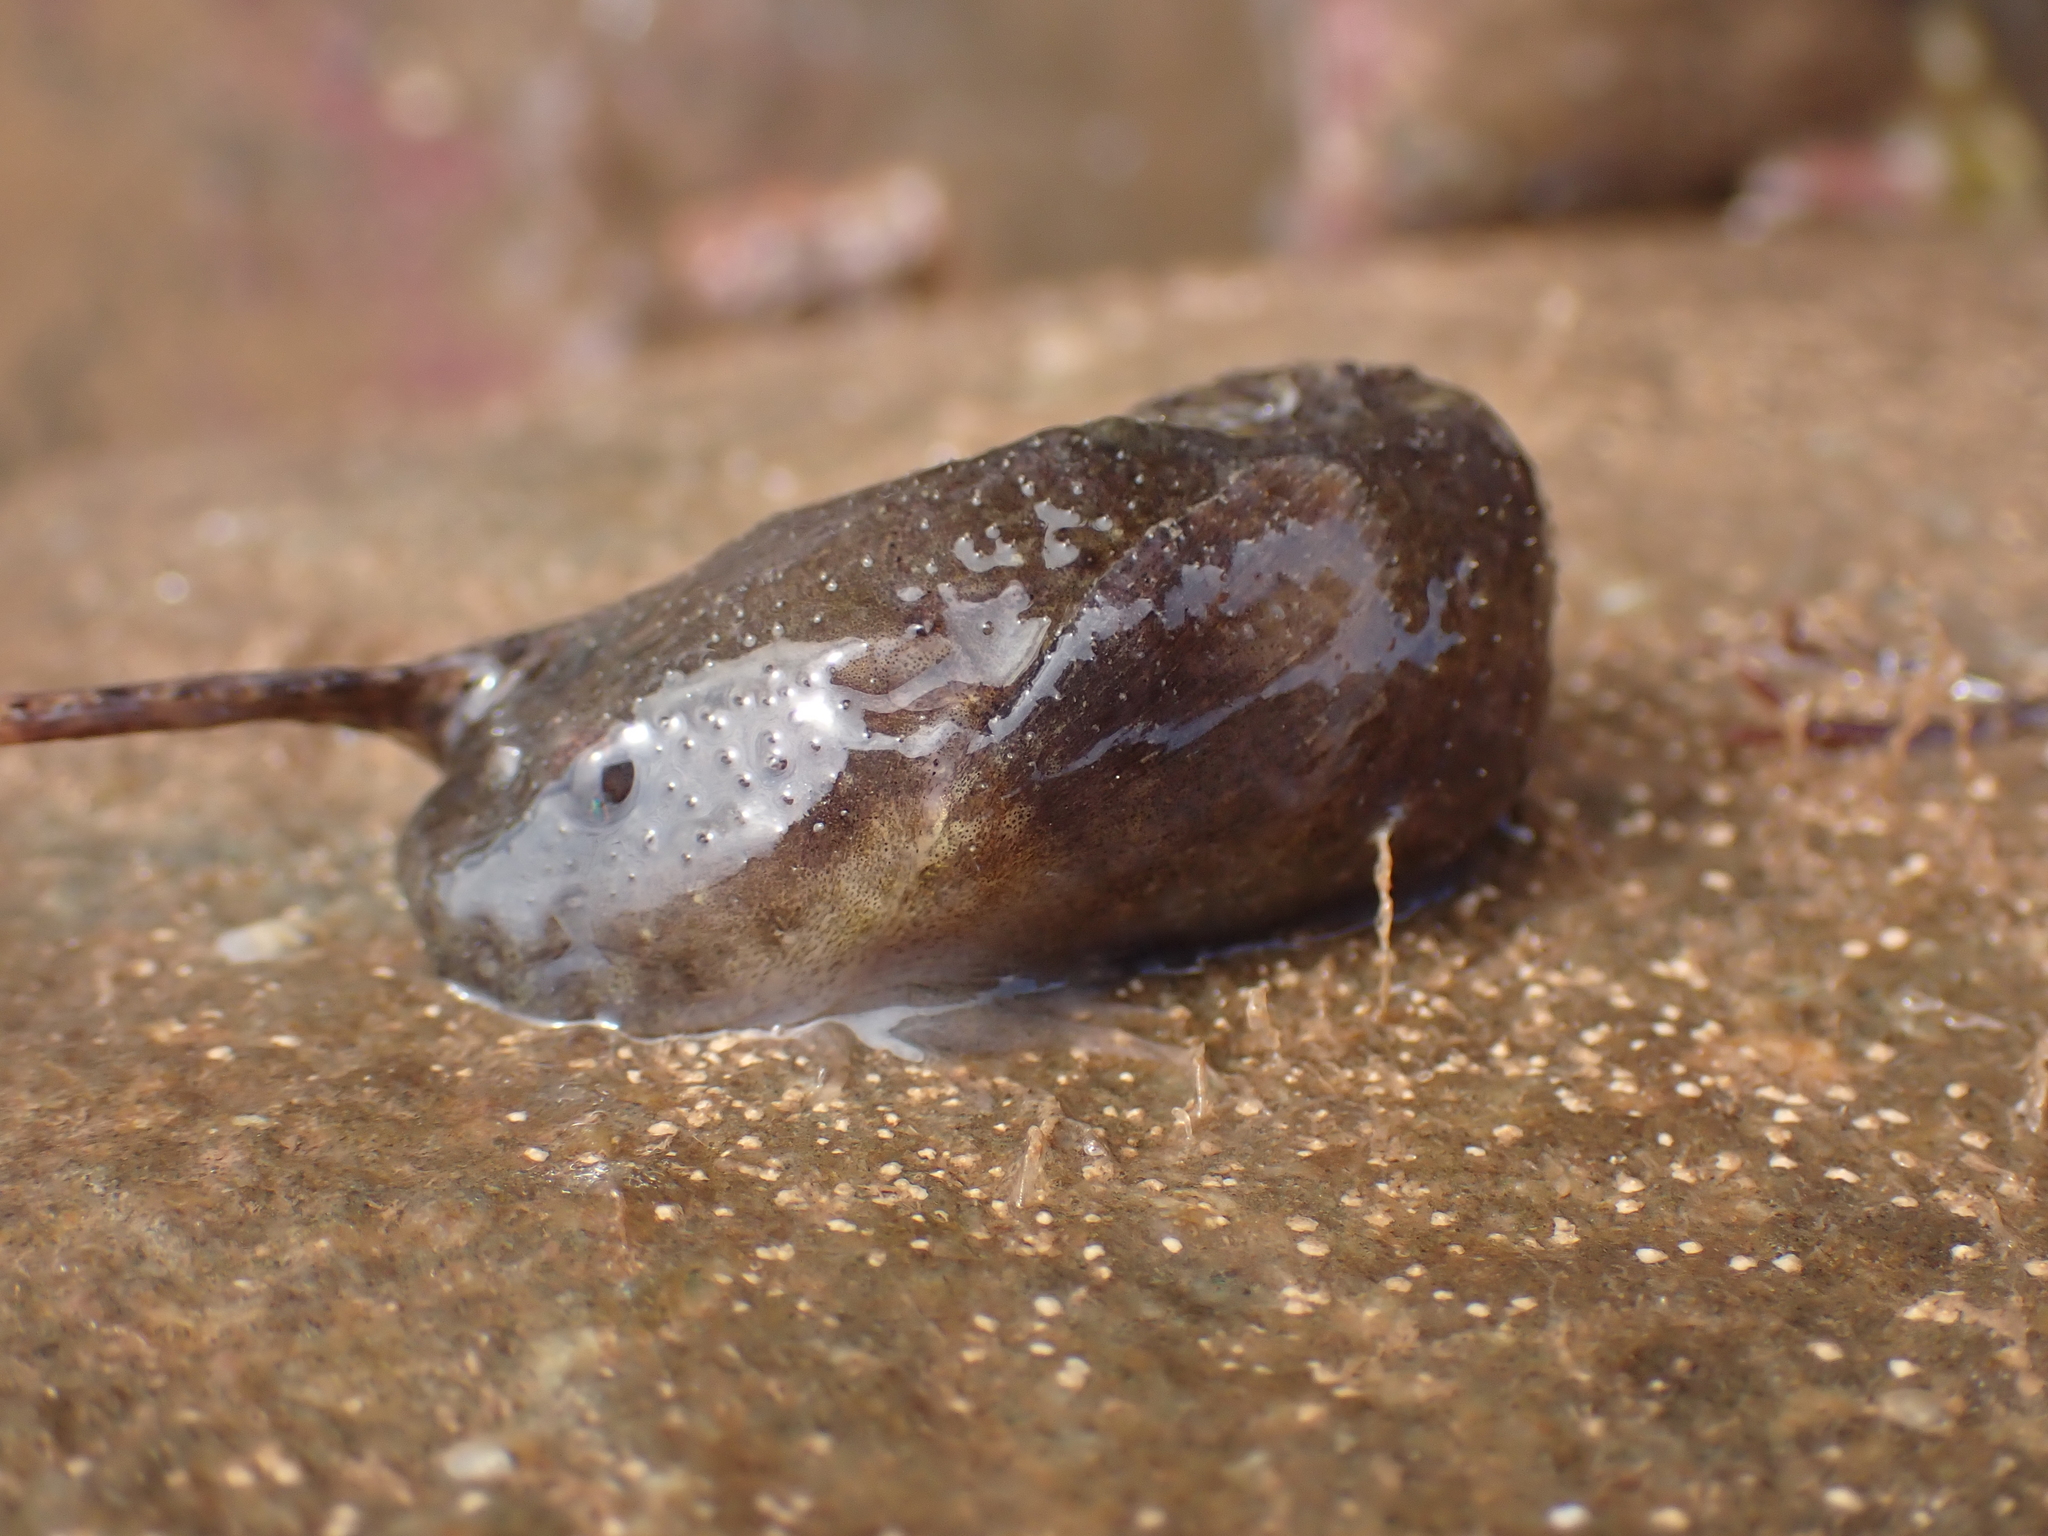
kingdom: Animalia
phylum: Chordata
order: Scorpaeniformes
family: Liparidae
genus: Liparis
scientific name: Liparis atlanticus
